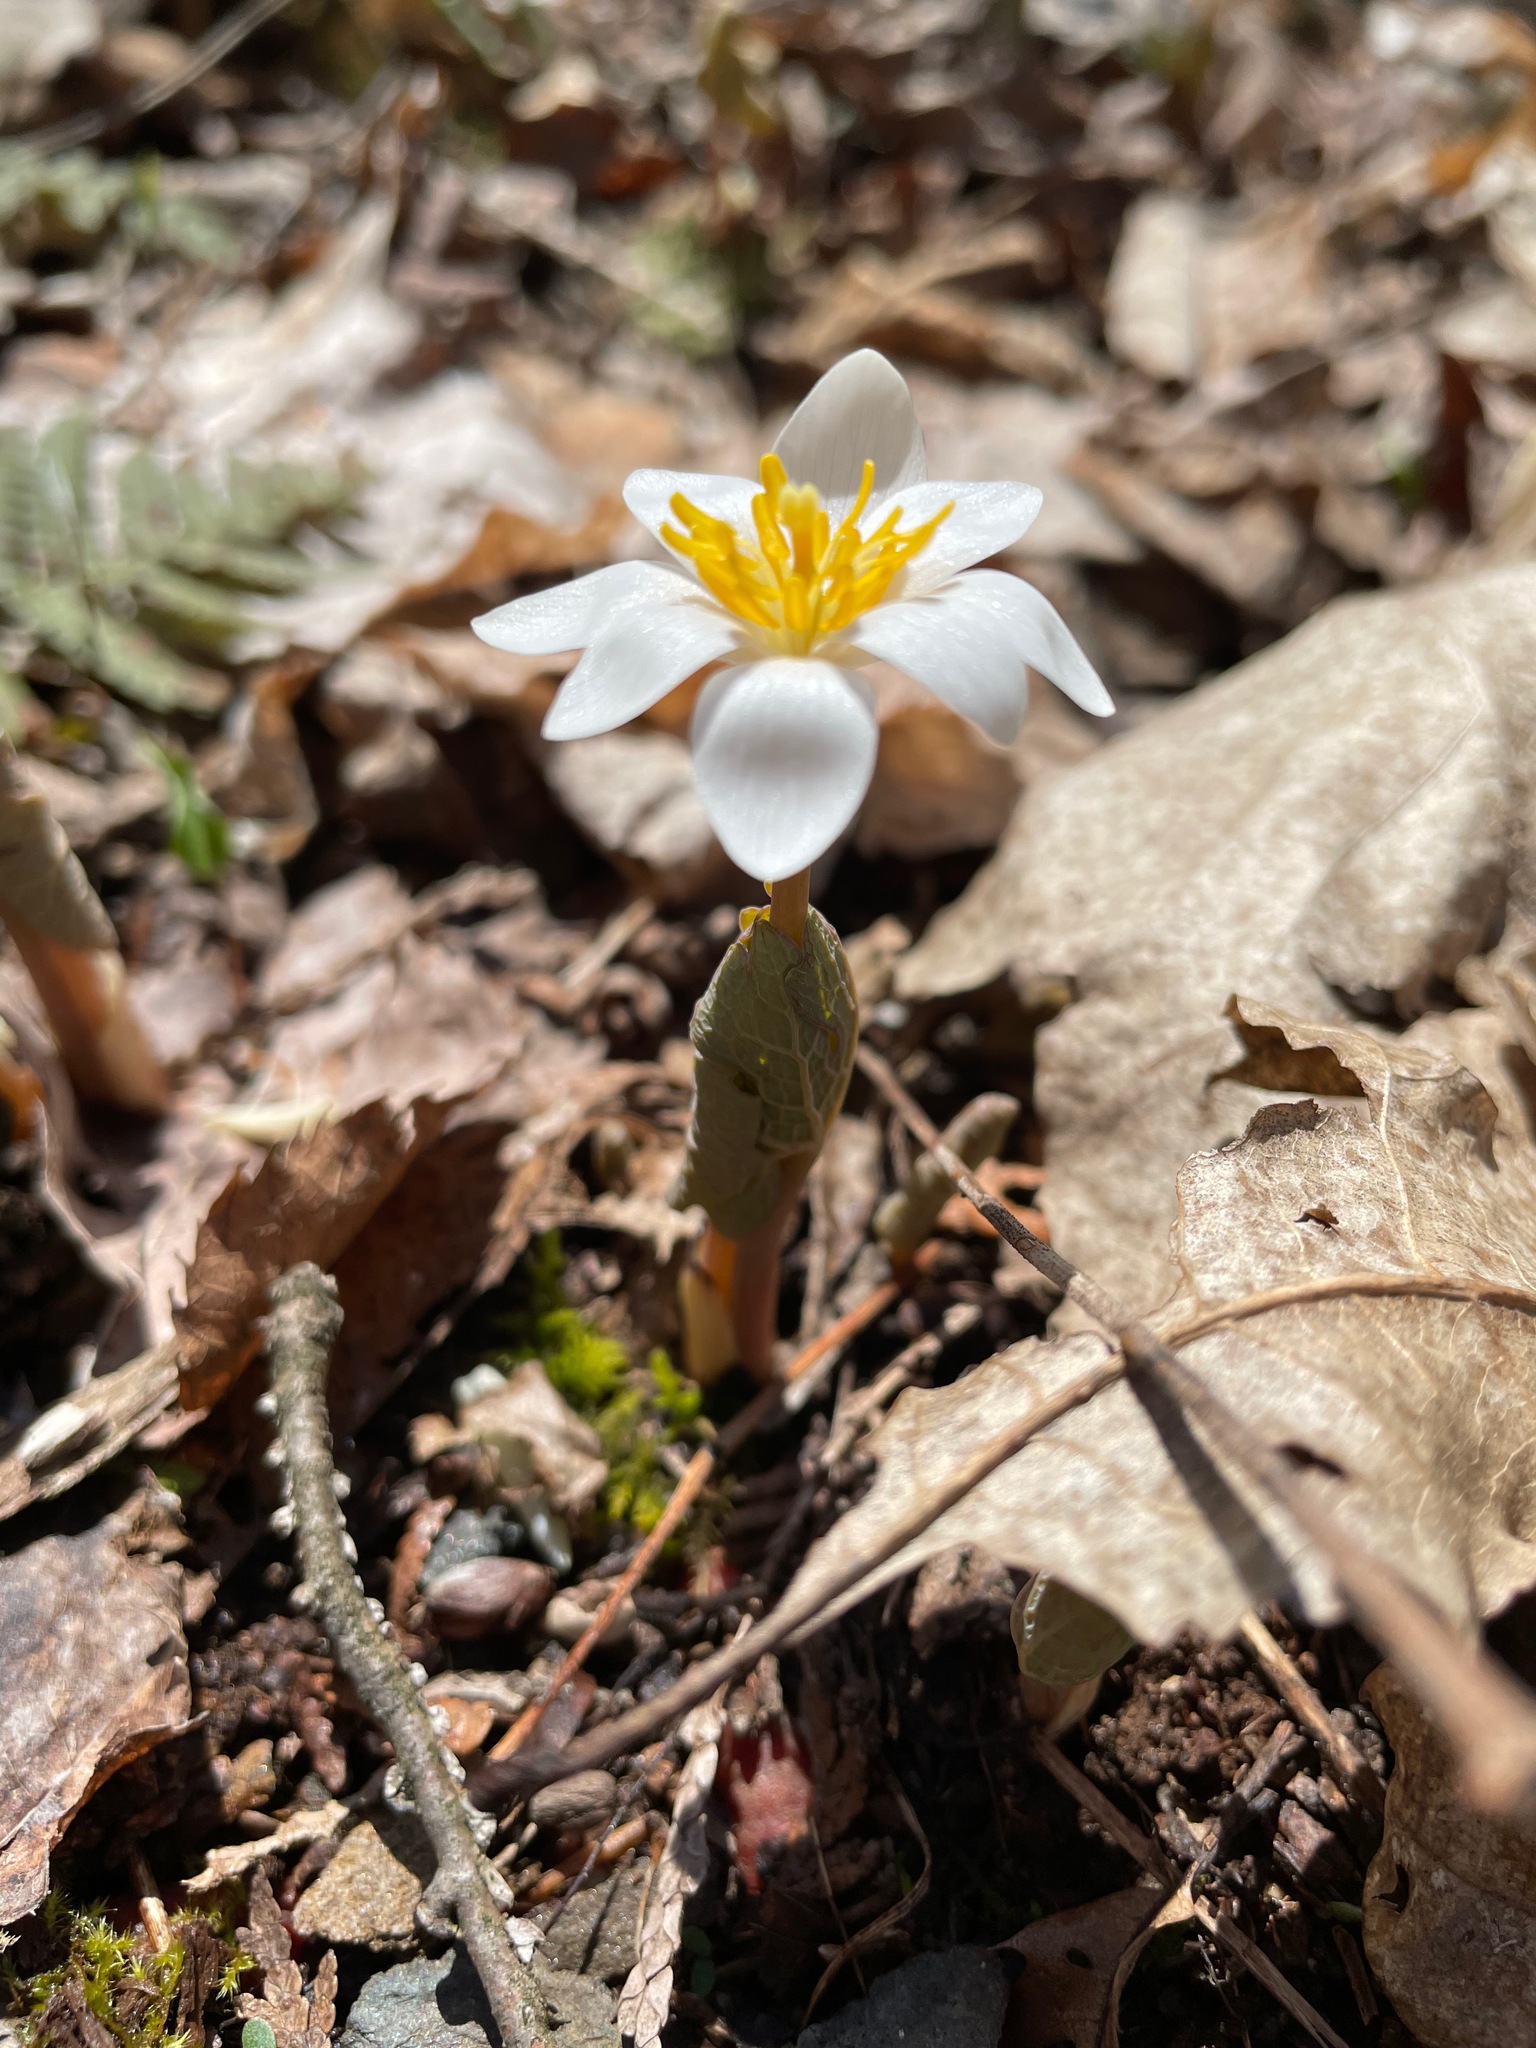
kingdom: Plantae
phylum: Tracheophyta
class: Magnoliopsida
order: Ranunculales
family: Papaveraceae
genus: Sanguinaria
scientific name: Sanguinaria canadensis
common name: Bloodroot
